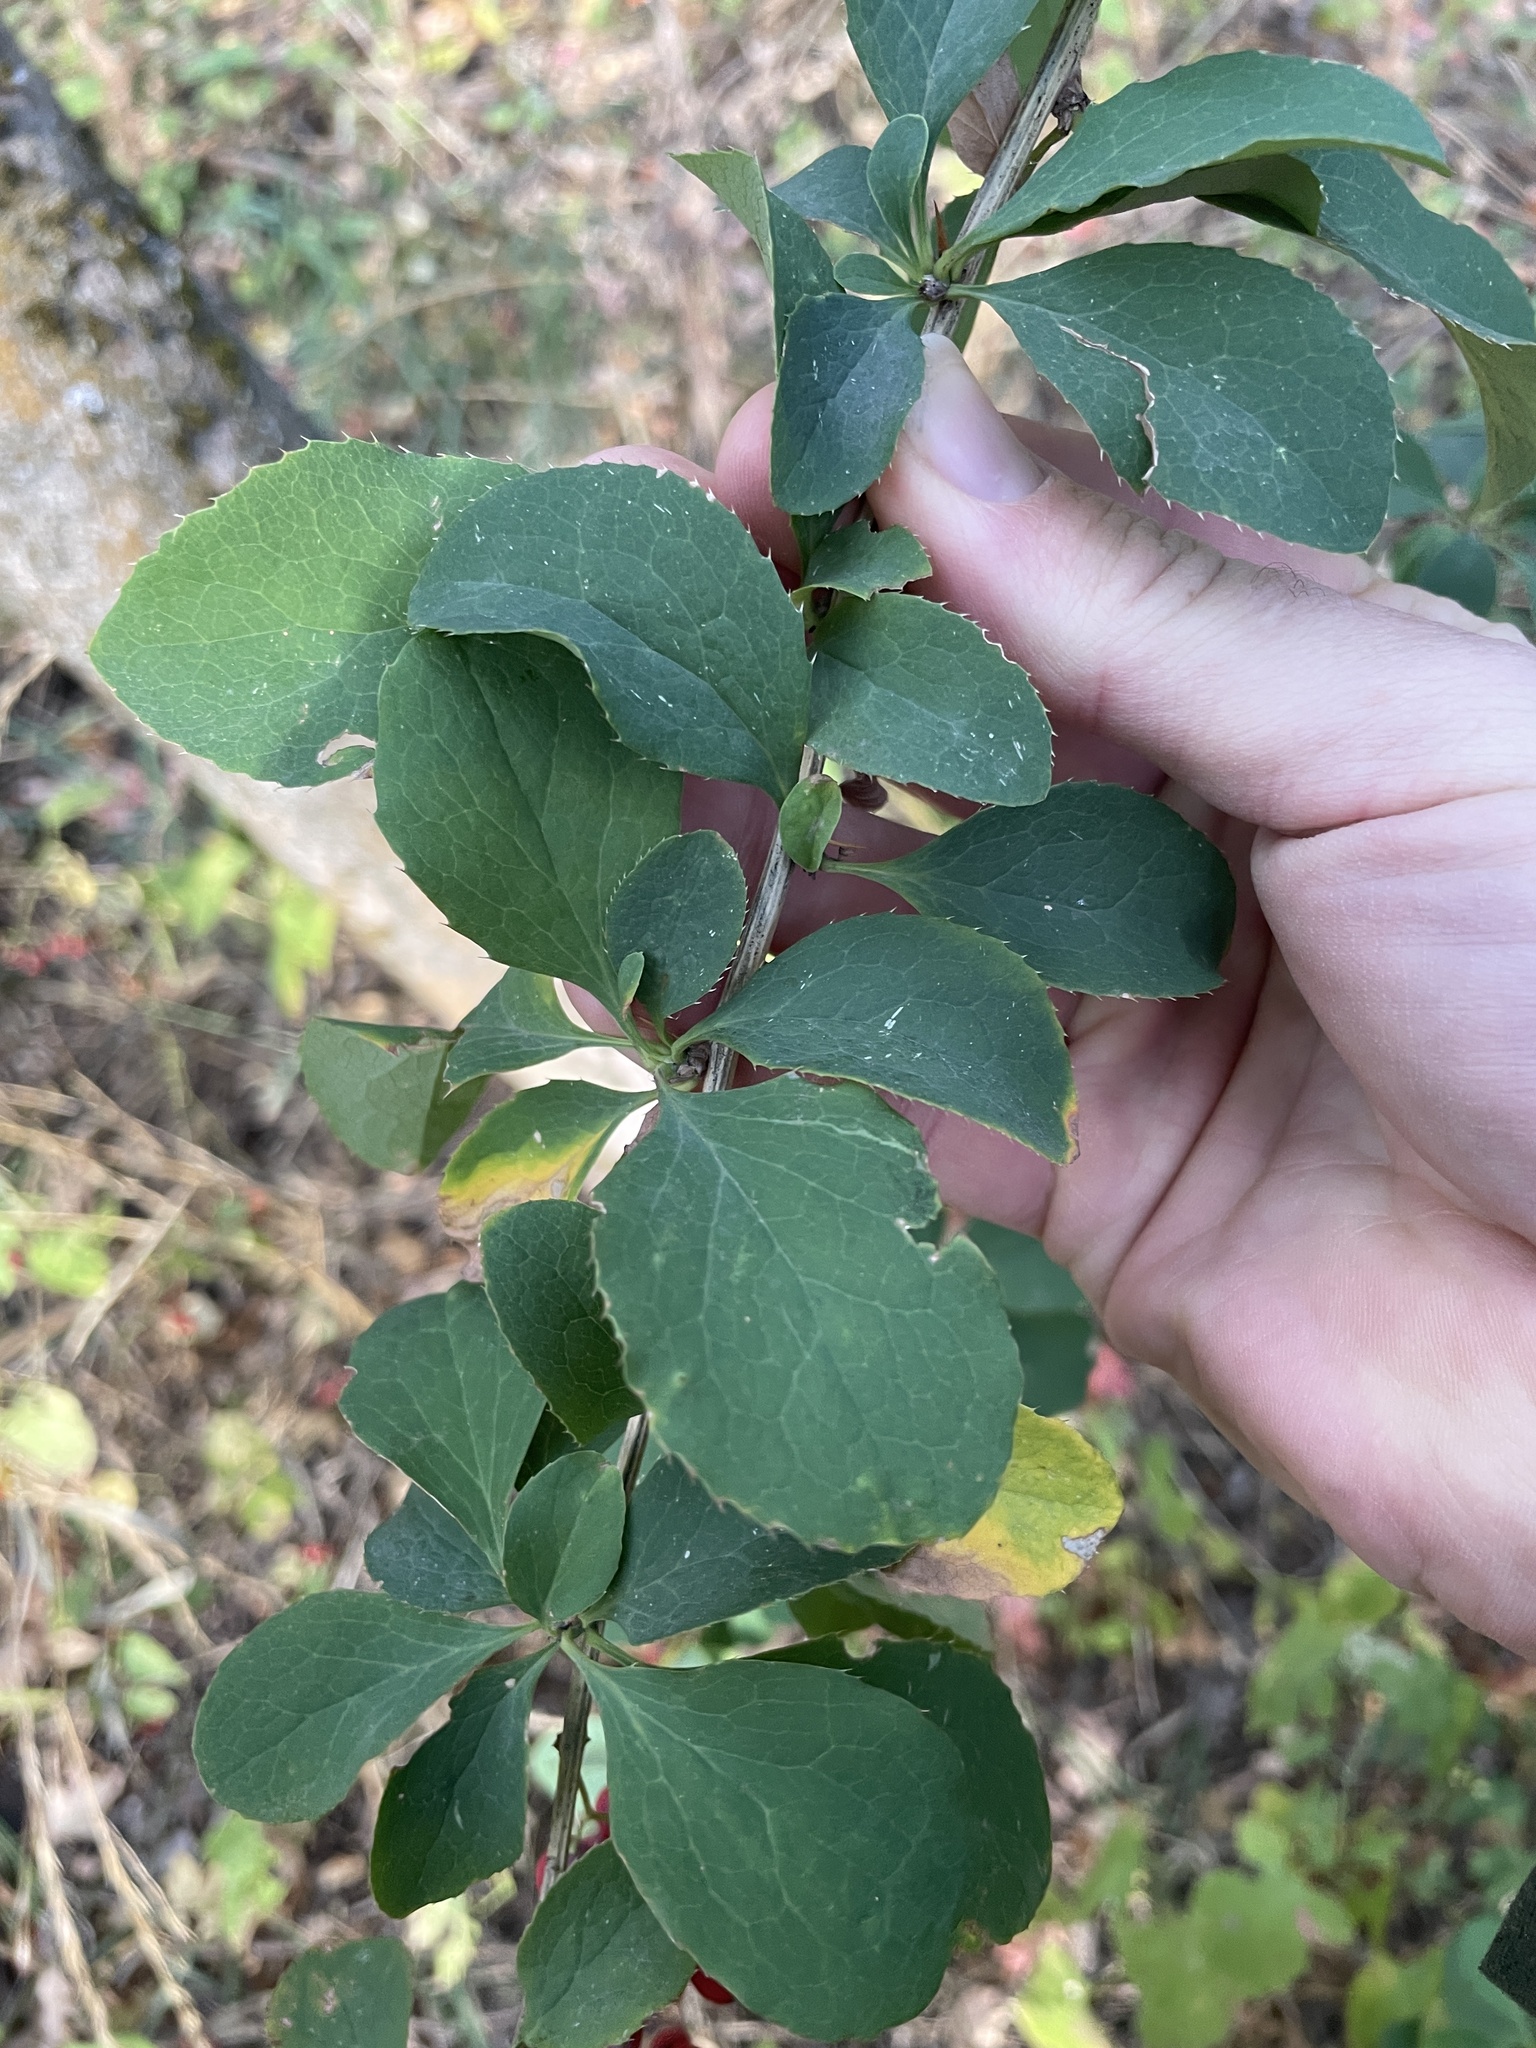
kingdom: Plantae
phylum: Tracheophyta
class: Magnoliopsida
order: Ranunculales
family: Berberidaceae
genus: Berberis
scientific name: Berberis vulgaris
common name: Barberry
